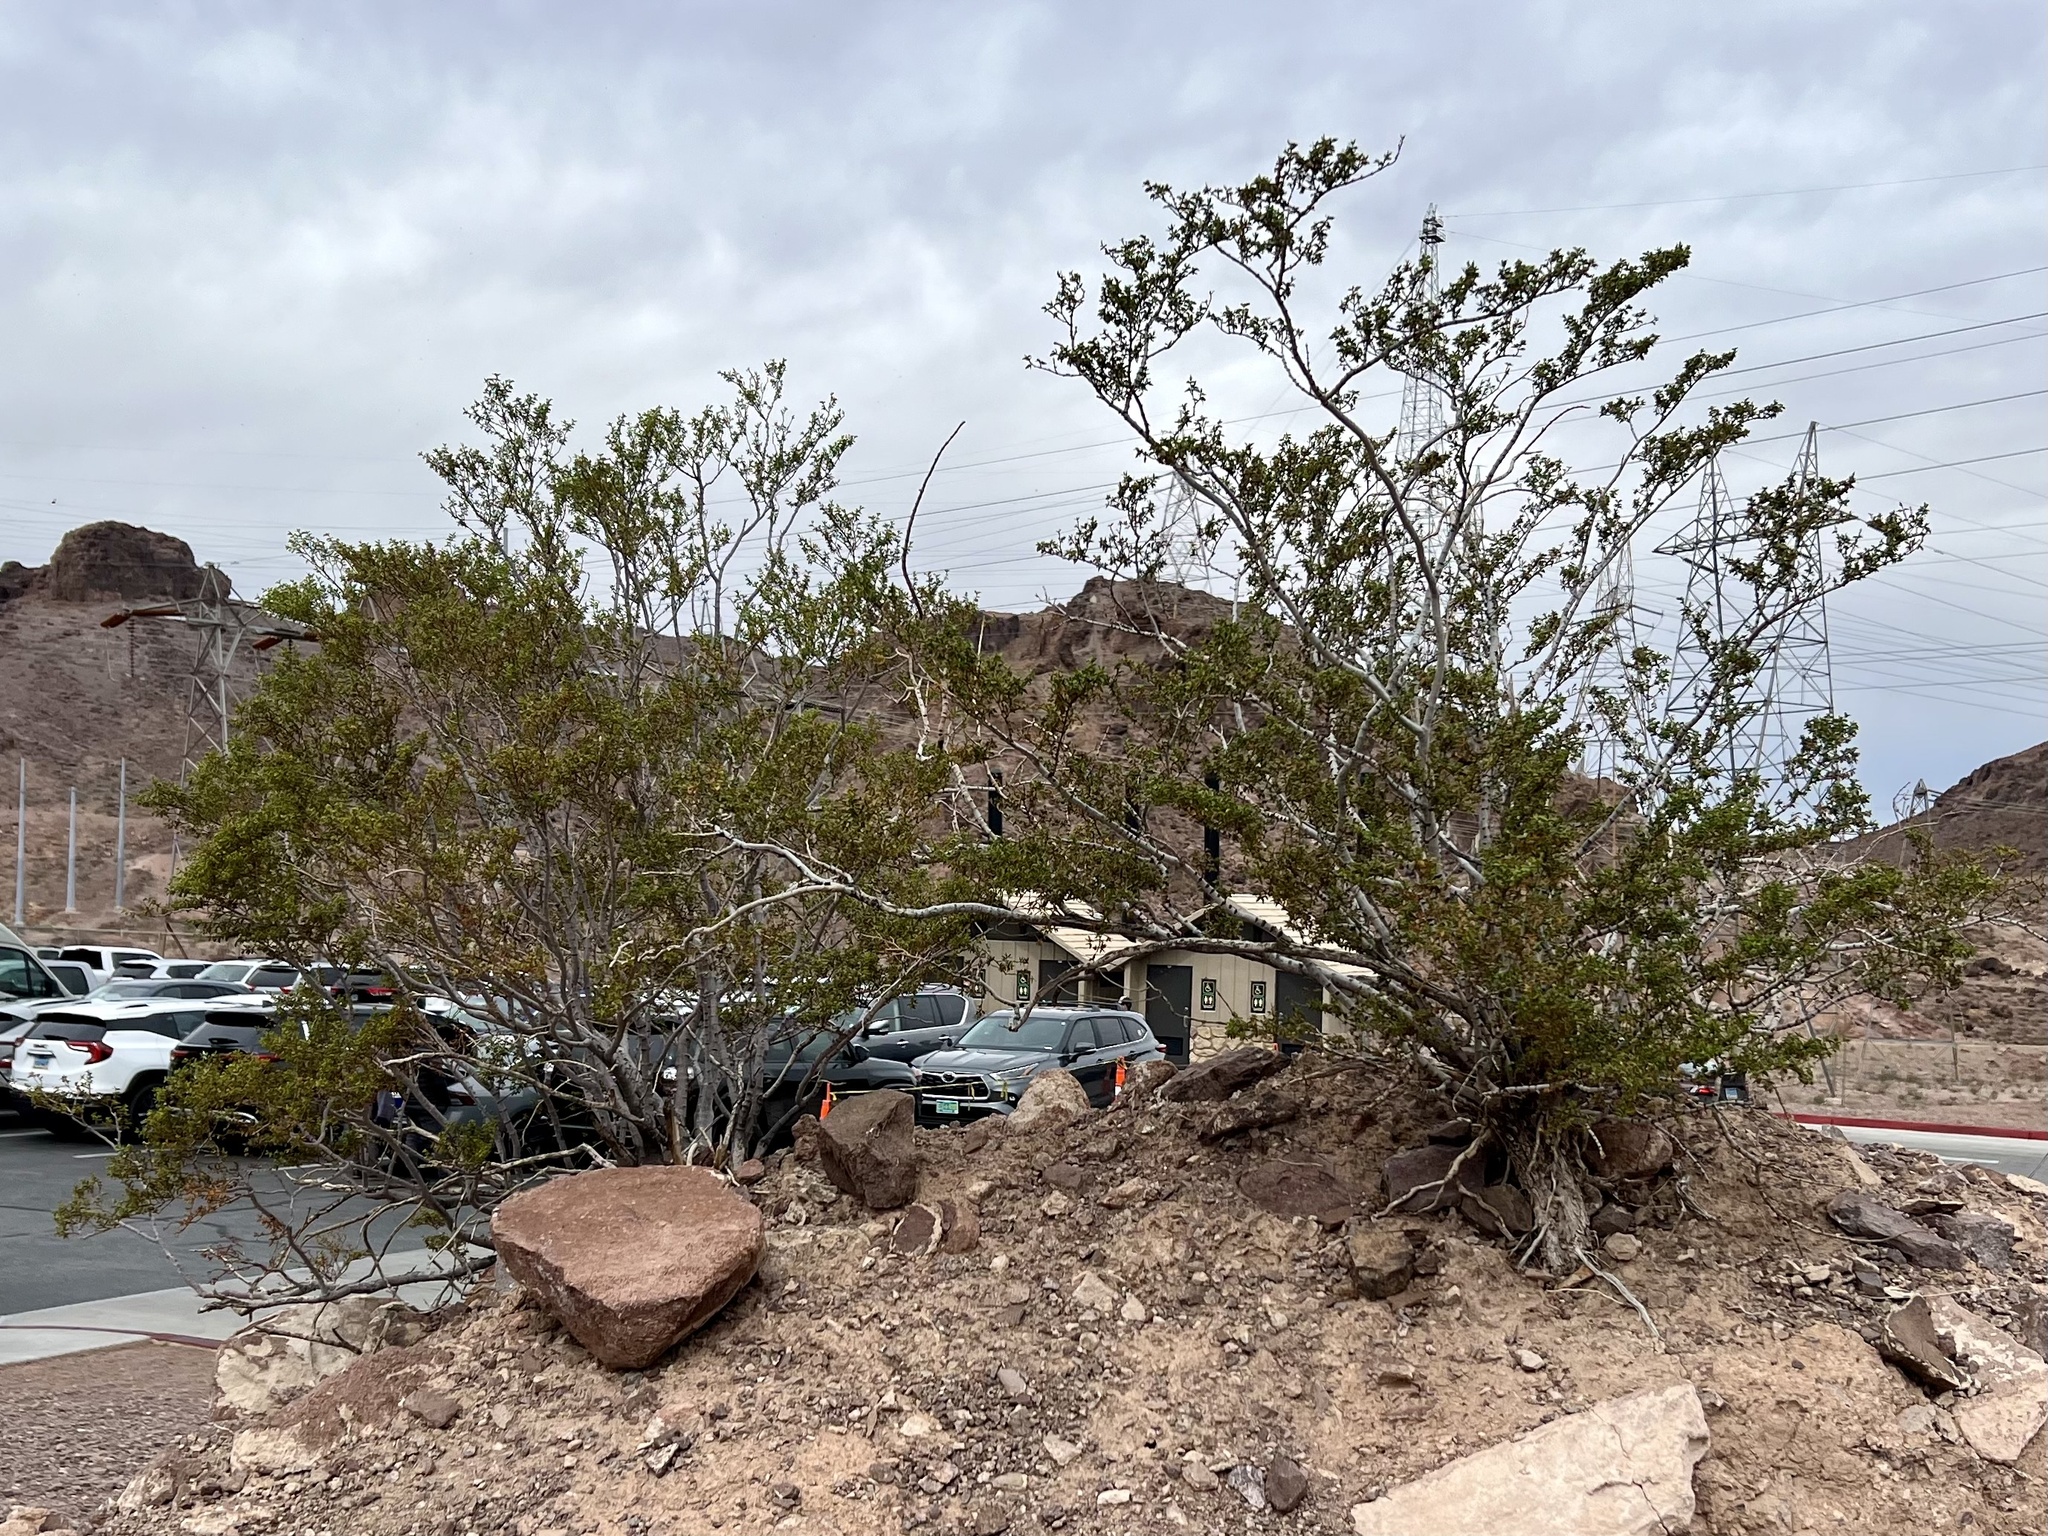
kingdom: Plantae
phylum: Tracheophyta
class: Magnoliopsida
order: Zygophyllales
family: Zygophyllaceae
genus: Larrea
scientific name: Larrea tridentata
